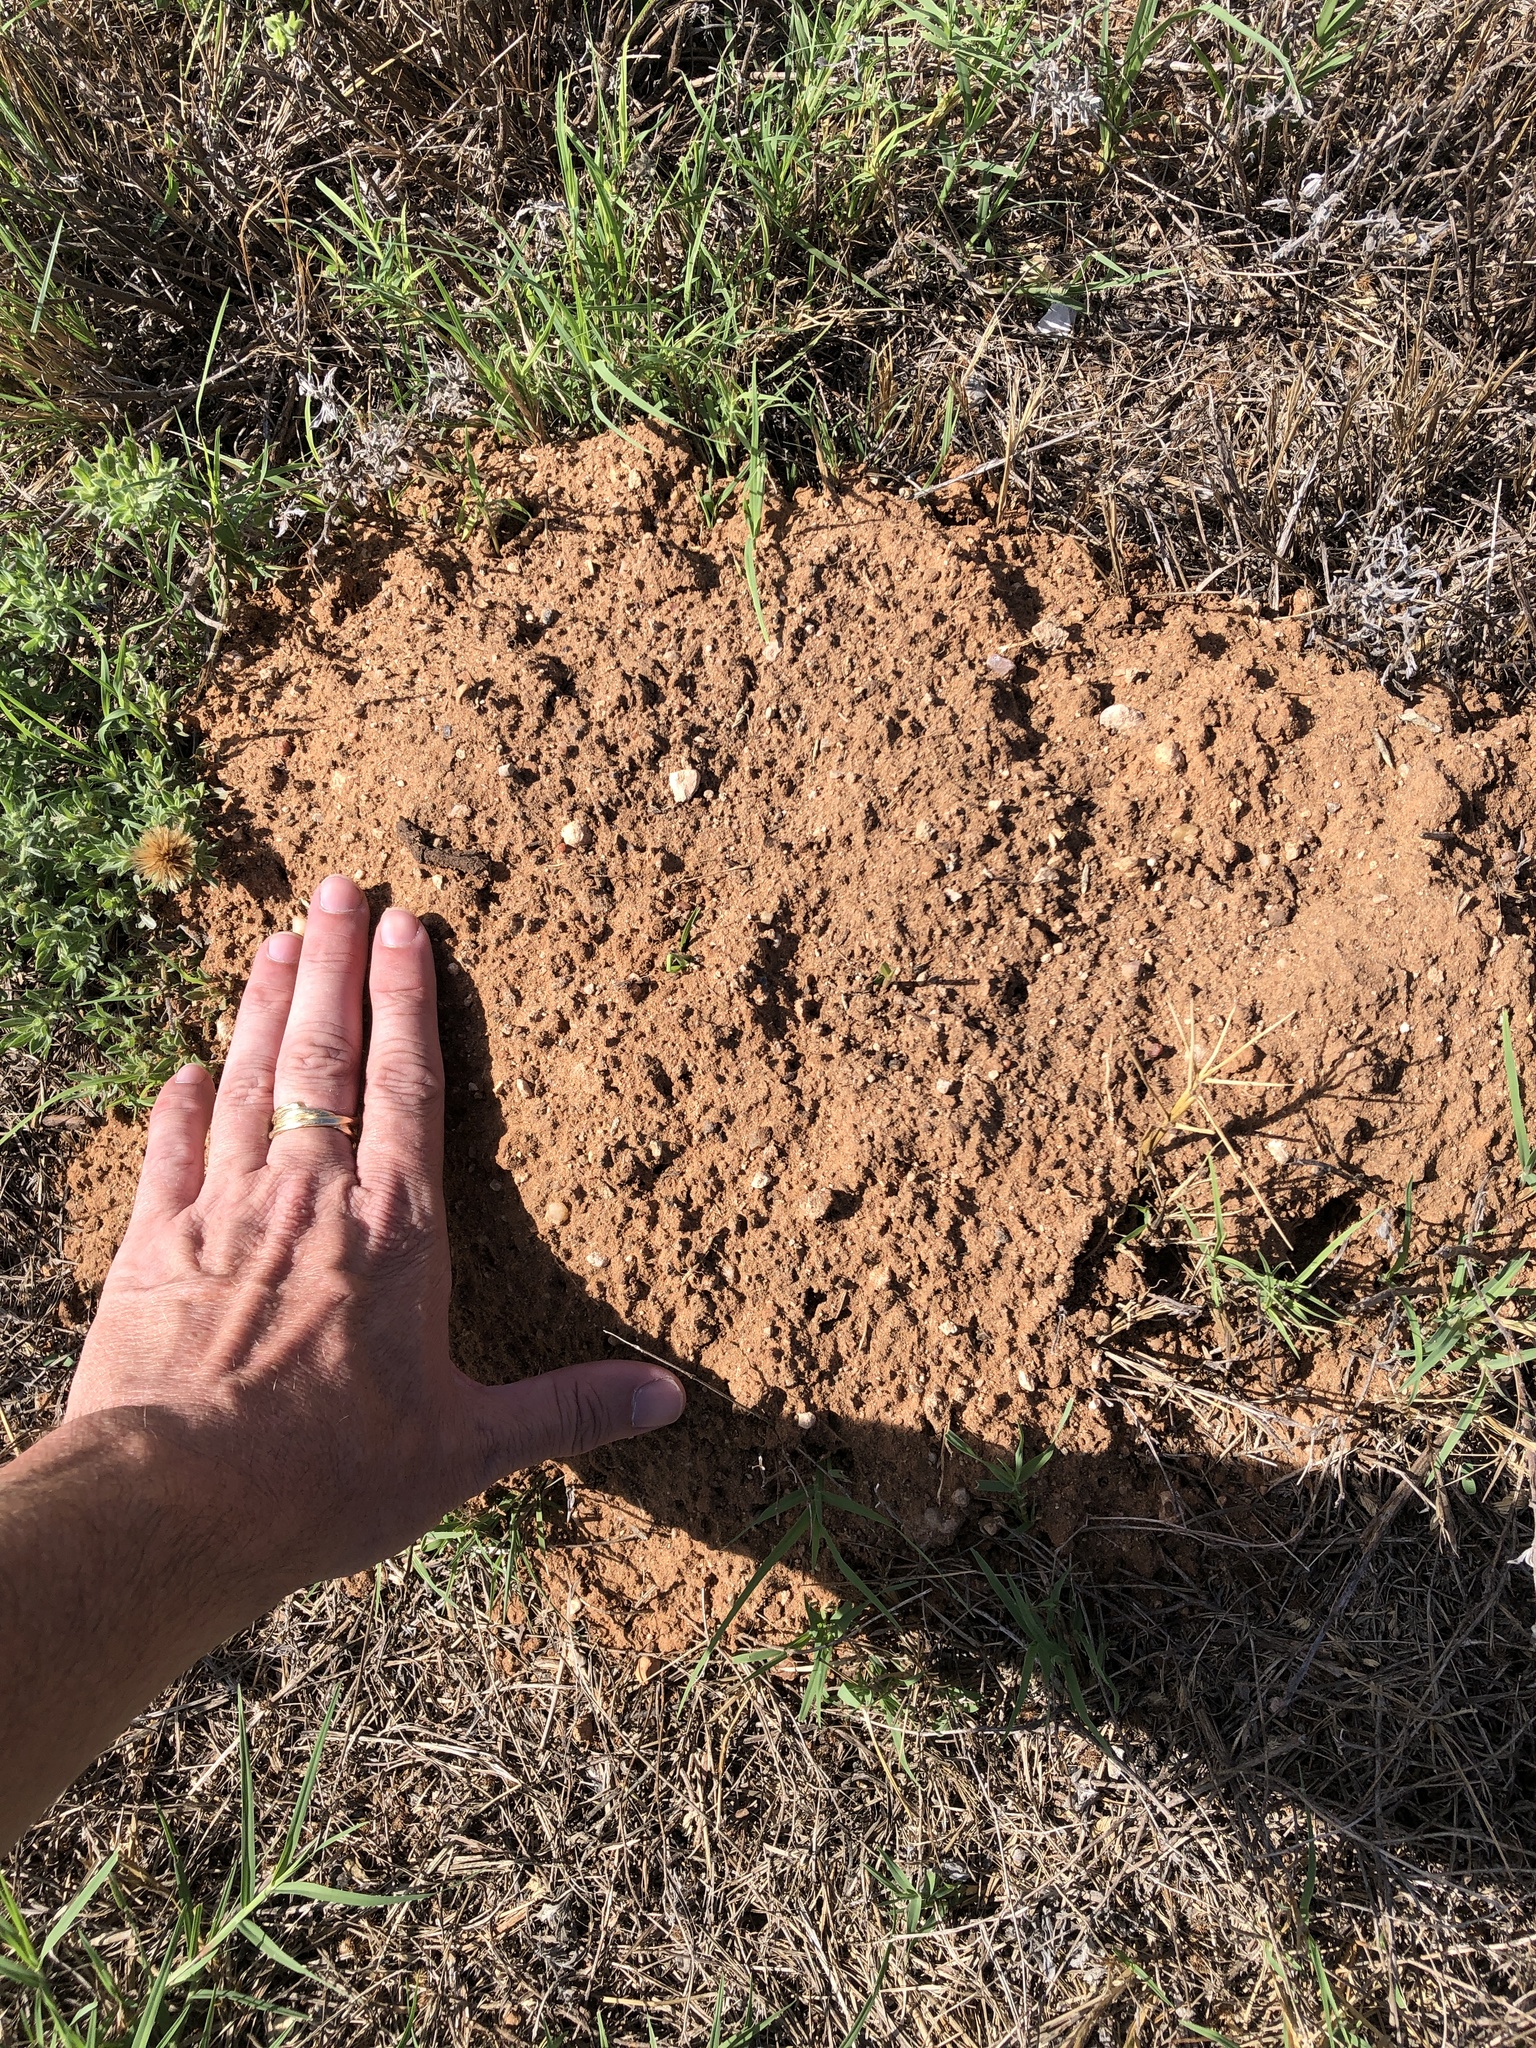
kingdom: Animalia
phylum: Chordata
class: Mammalia
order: Rodentia
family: Geomyidae
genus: Geomys
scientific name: Geomys bursarius
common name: Plains pocket gopher
